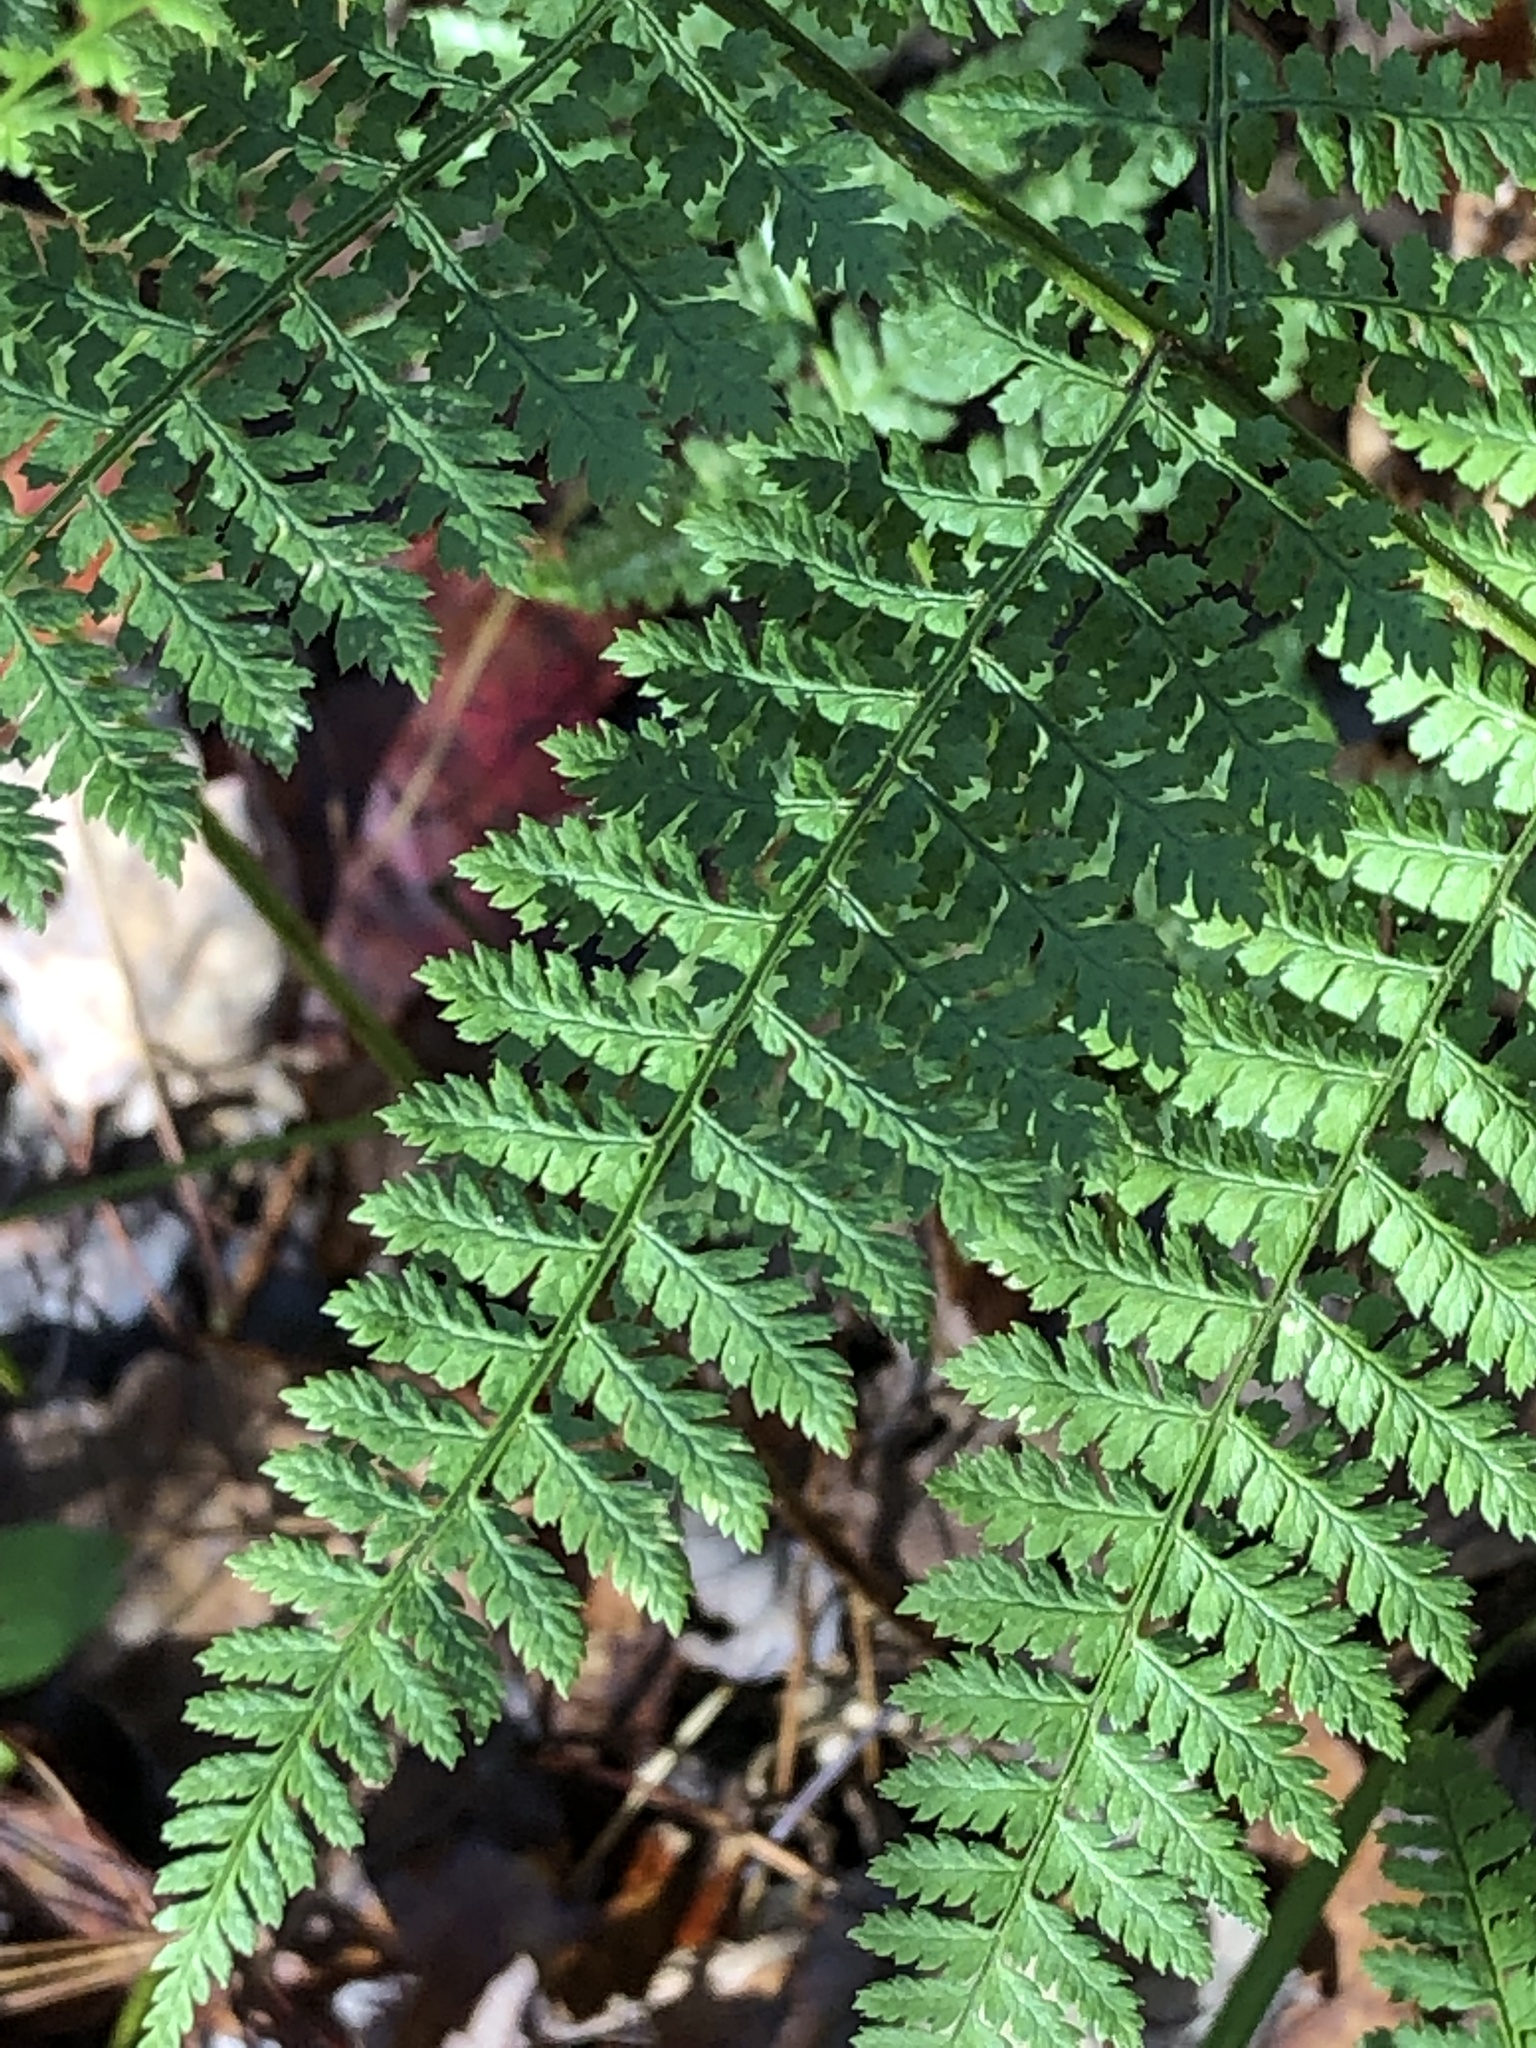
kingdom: Plantae
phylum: Tracheophyta
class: Polypodiopsida
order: Polypodiales
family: Dryopteridaceae
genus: Dryopteris
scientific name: Dryopteris intermedia
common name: Evergreen wood fern
